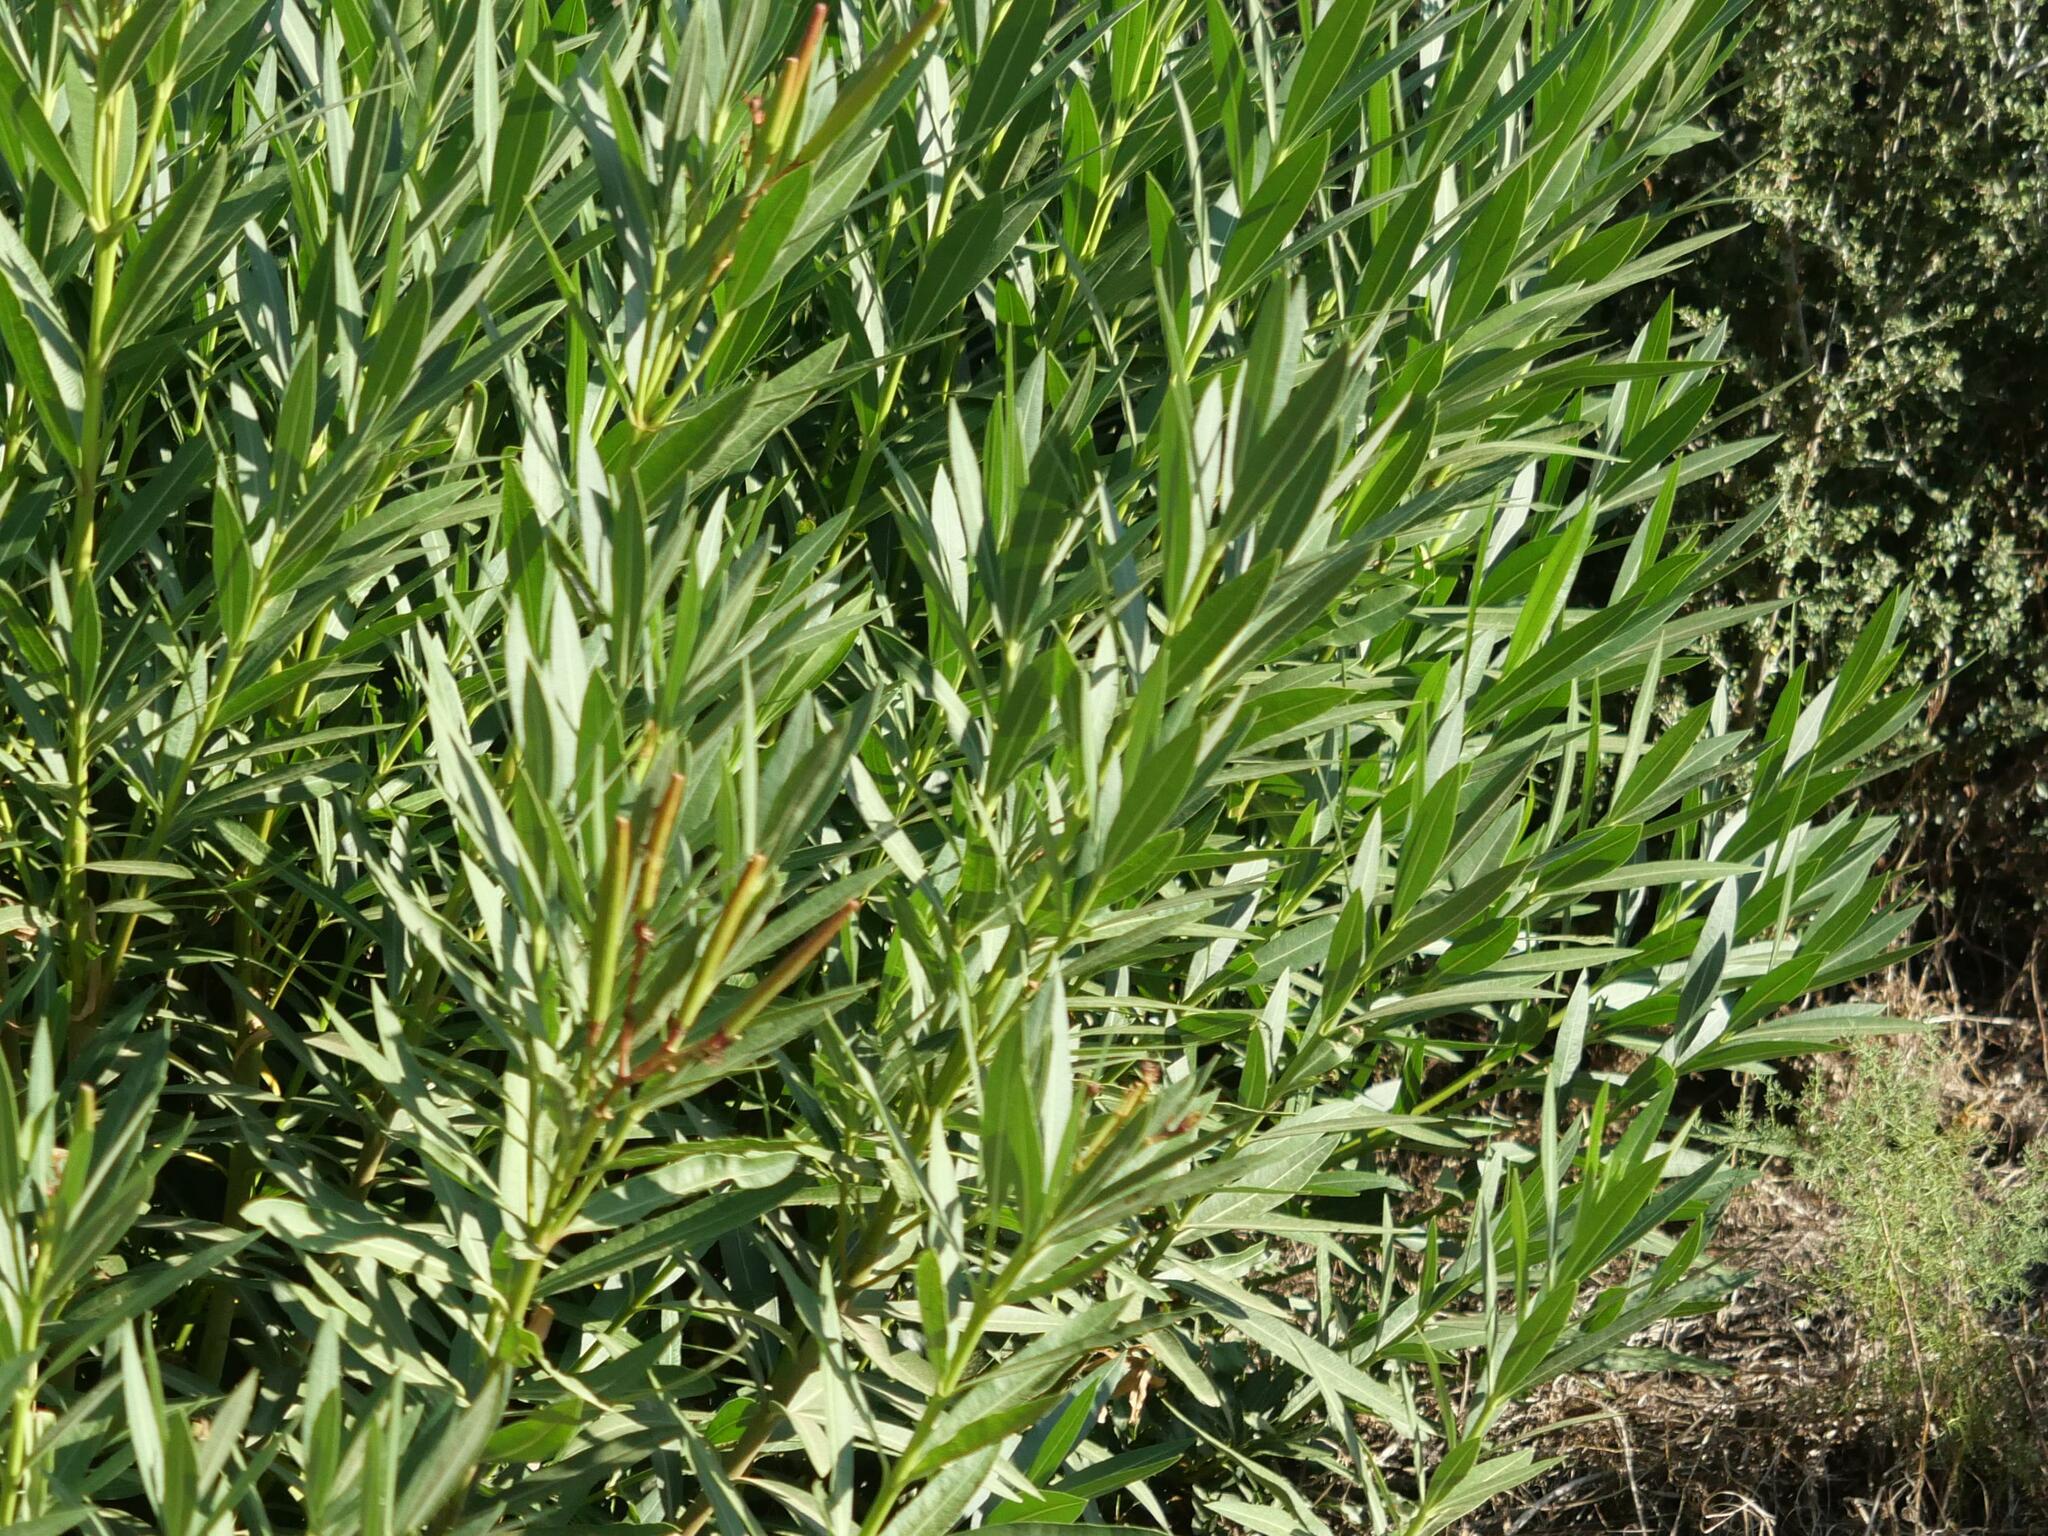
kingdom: Plantae
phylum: Tracheophyta
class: Magnoliopsida
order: Gentianales
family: Apocynaceae
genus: Nerium
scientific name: Nerium oleander
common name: Oleander
